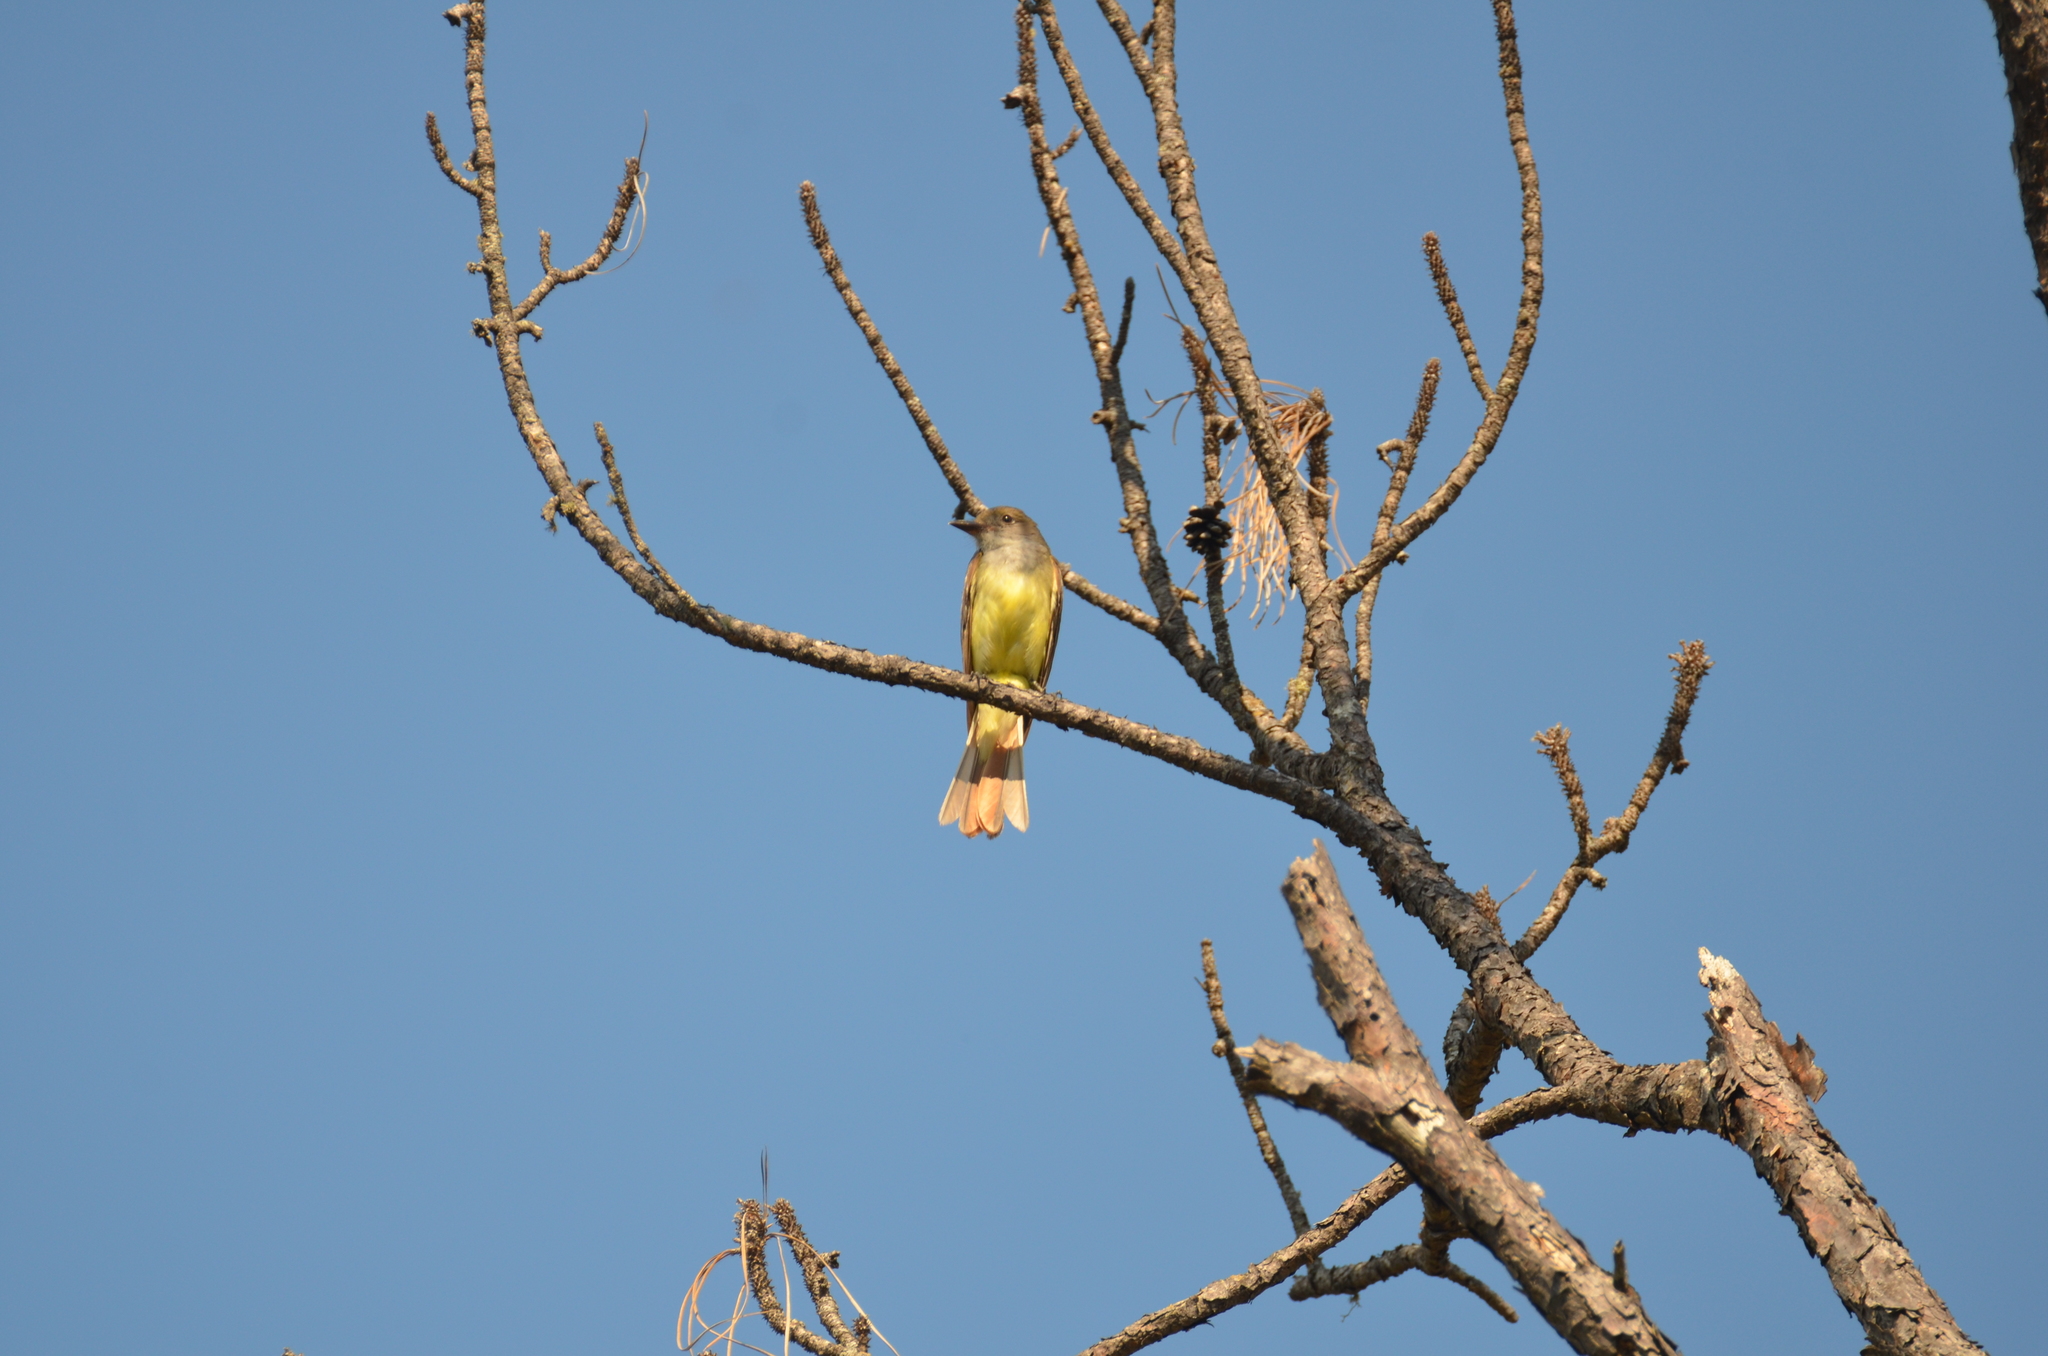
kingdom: Animalia
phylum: Chordata
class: Aves
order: Passeriformes
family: Tyrannidae
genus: Myiarchus
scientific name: Myiarchus crinitus
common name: Great crested flycatcher
